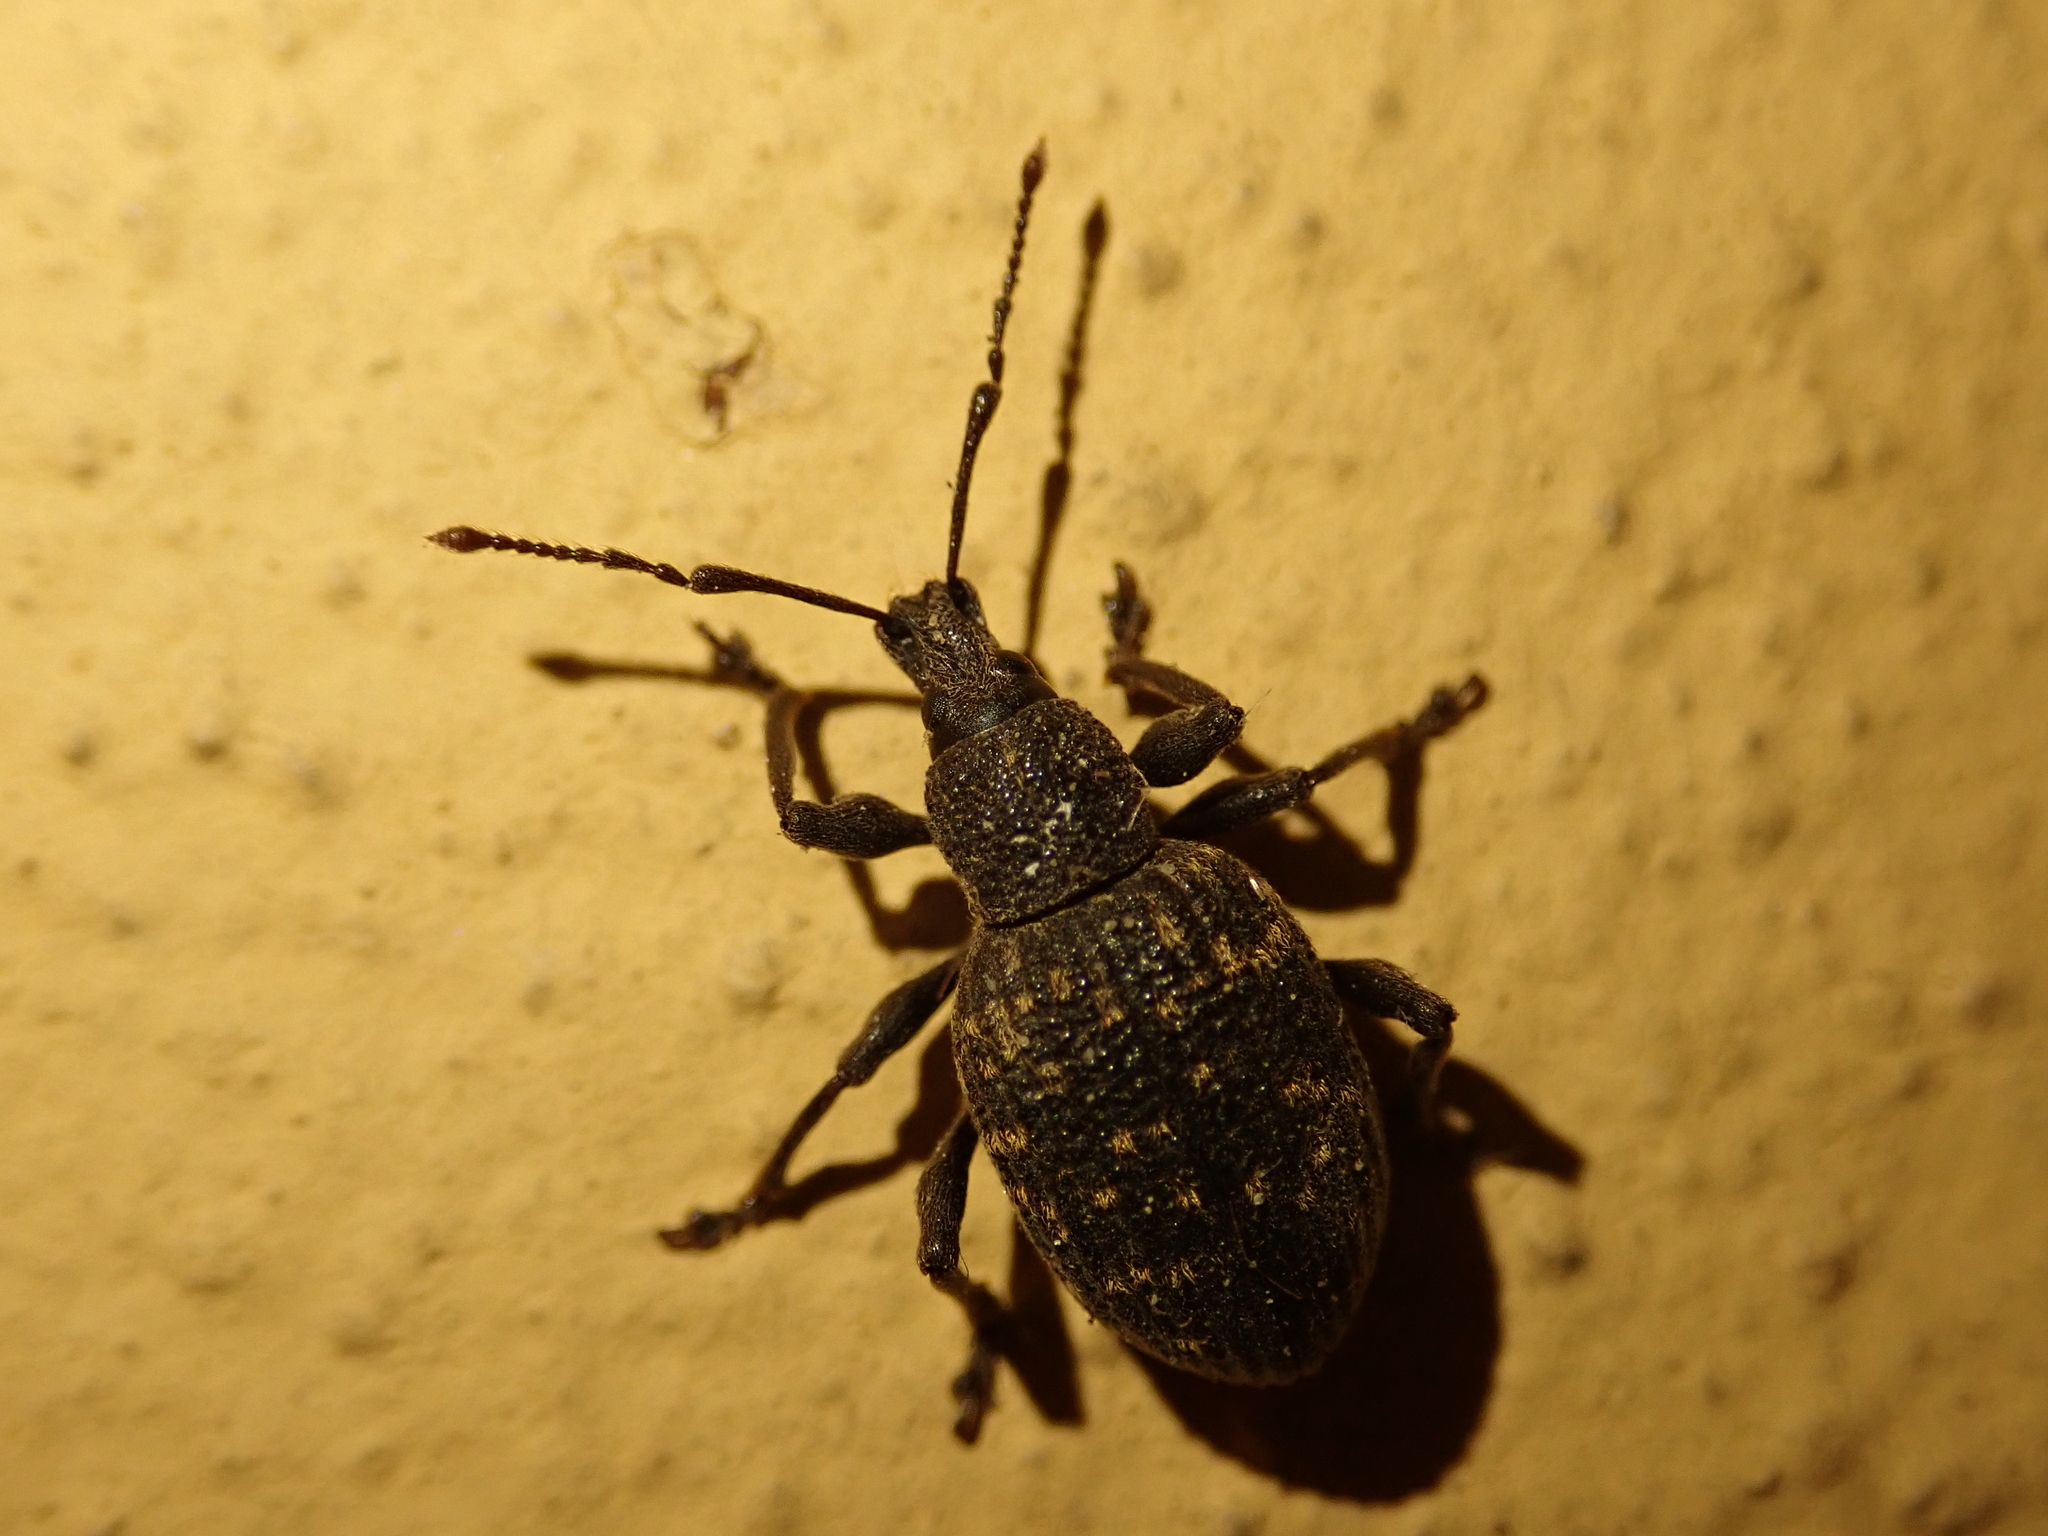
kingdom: Animalia
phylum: Arthropoda
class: Insecta
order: Coleoptera
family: Curculionidae
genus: Otiorhynchus
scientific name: Otiorhynchus sulcatus
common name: Black vine weevil
